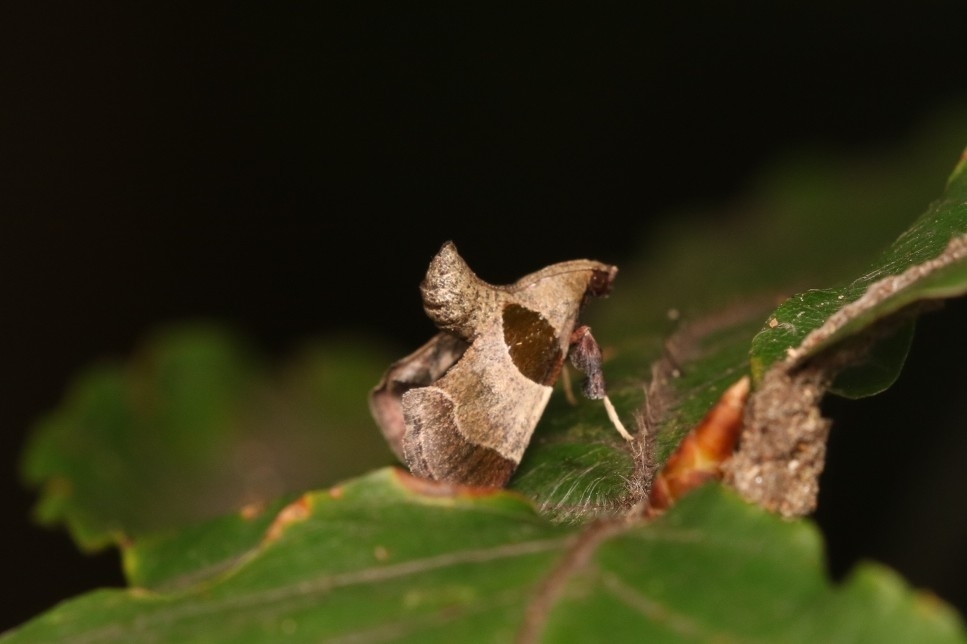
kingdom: Animalia
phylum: Arthropoda
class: Insecta
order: Lepidoptera
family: Pyralidae
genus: Tosale
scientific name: Tosale oviplagalis
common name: Dimorphic tosale moth
